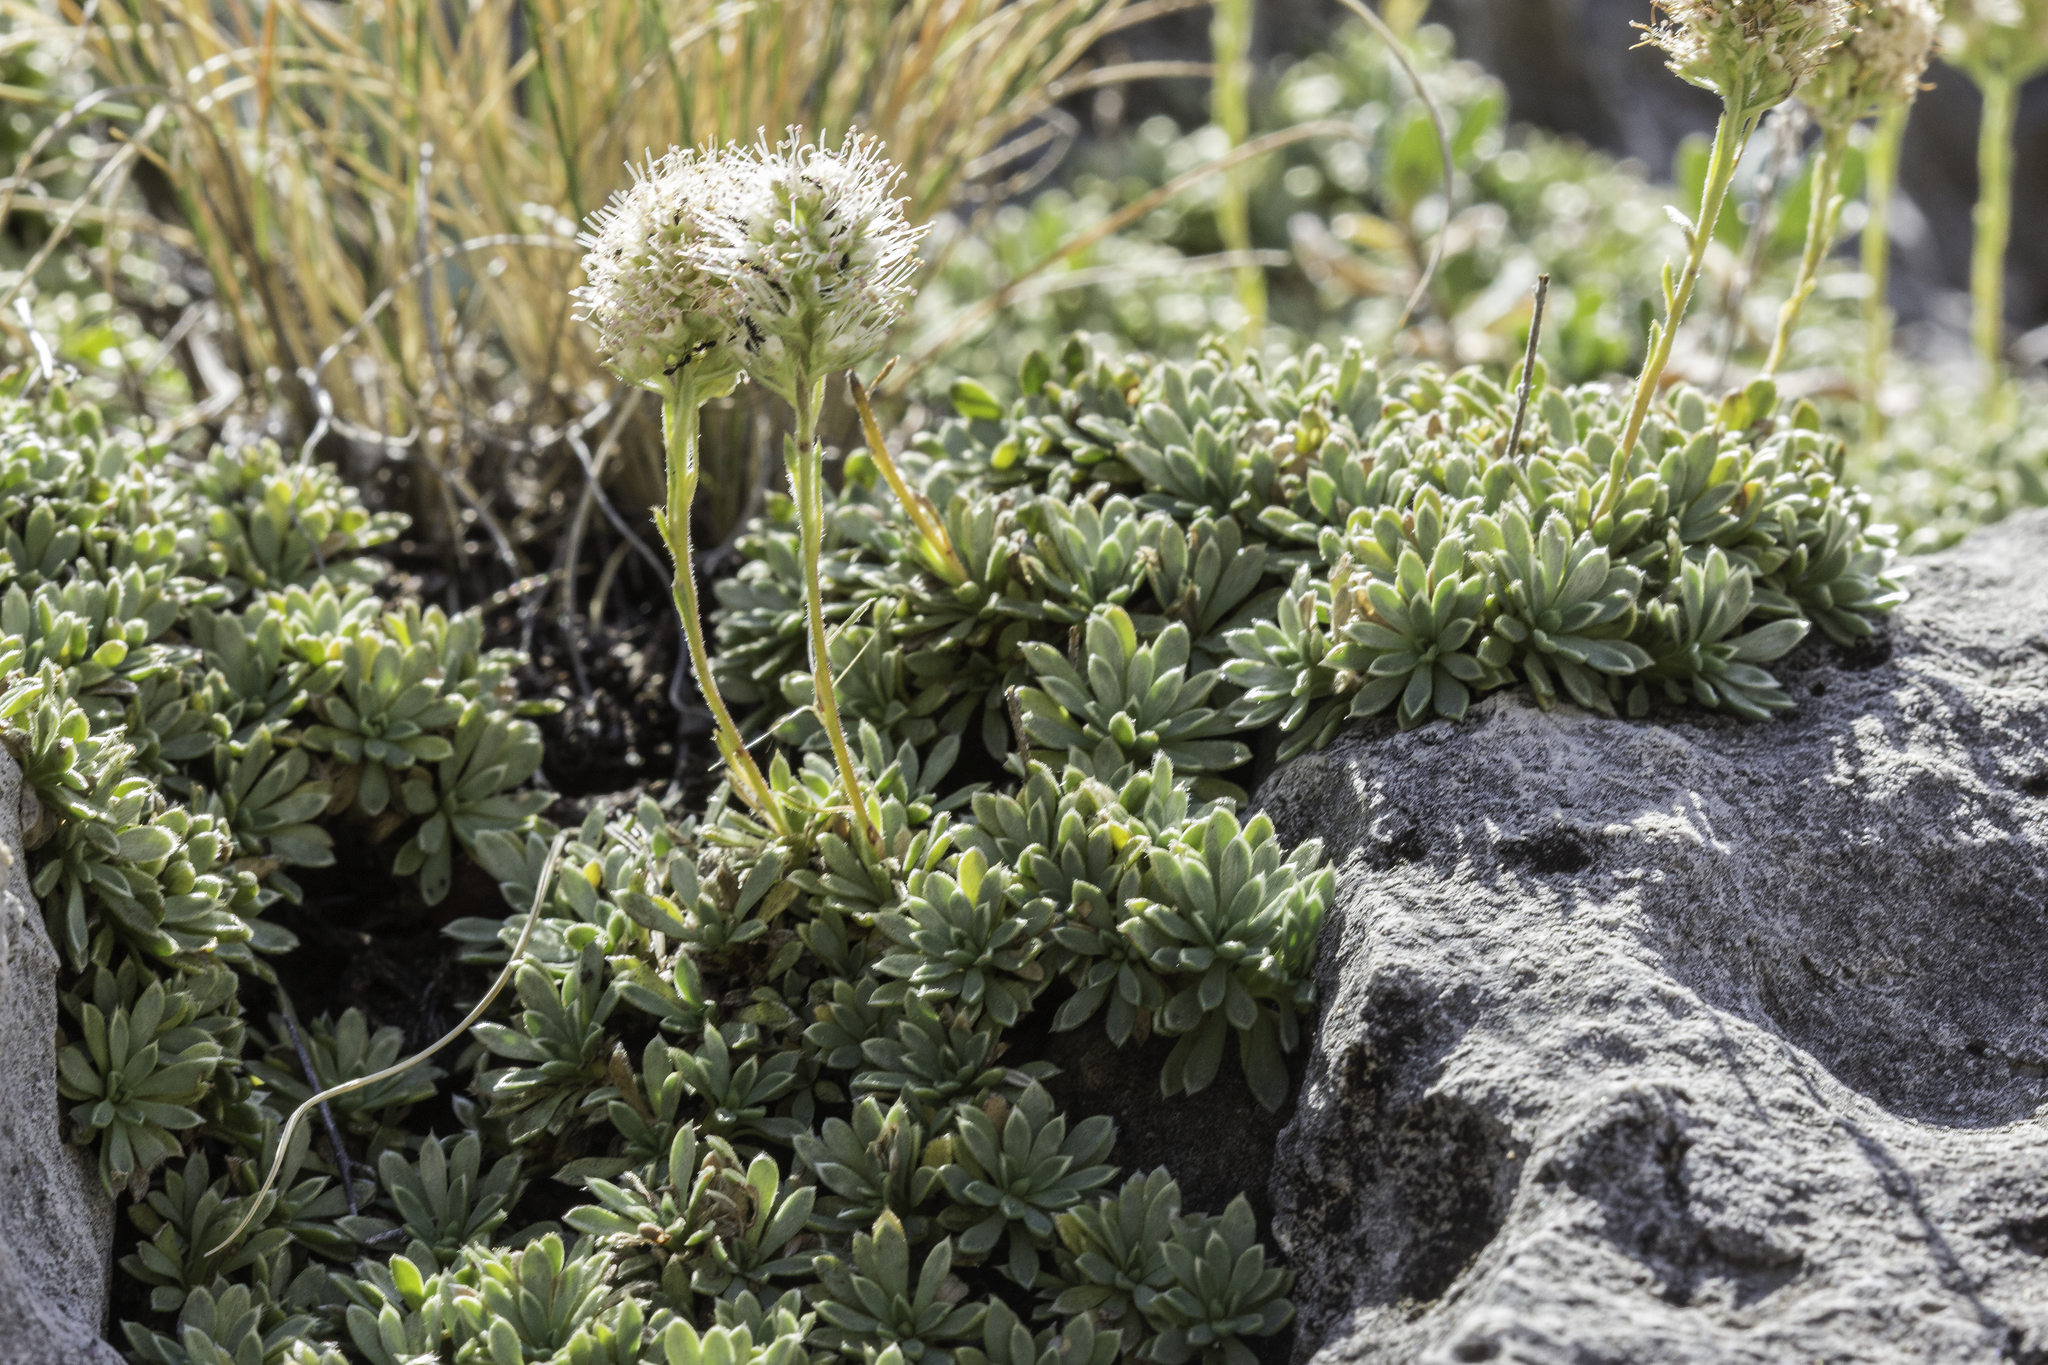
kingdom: Plantae
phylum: Tracheophyta
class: Magnoliopsida
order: Rosales
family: Rosaceae
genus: Petrophytum
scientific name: Petrophytum caespitosum
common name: Mat rockspirea
